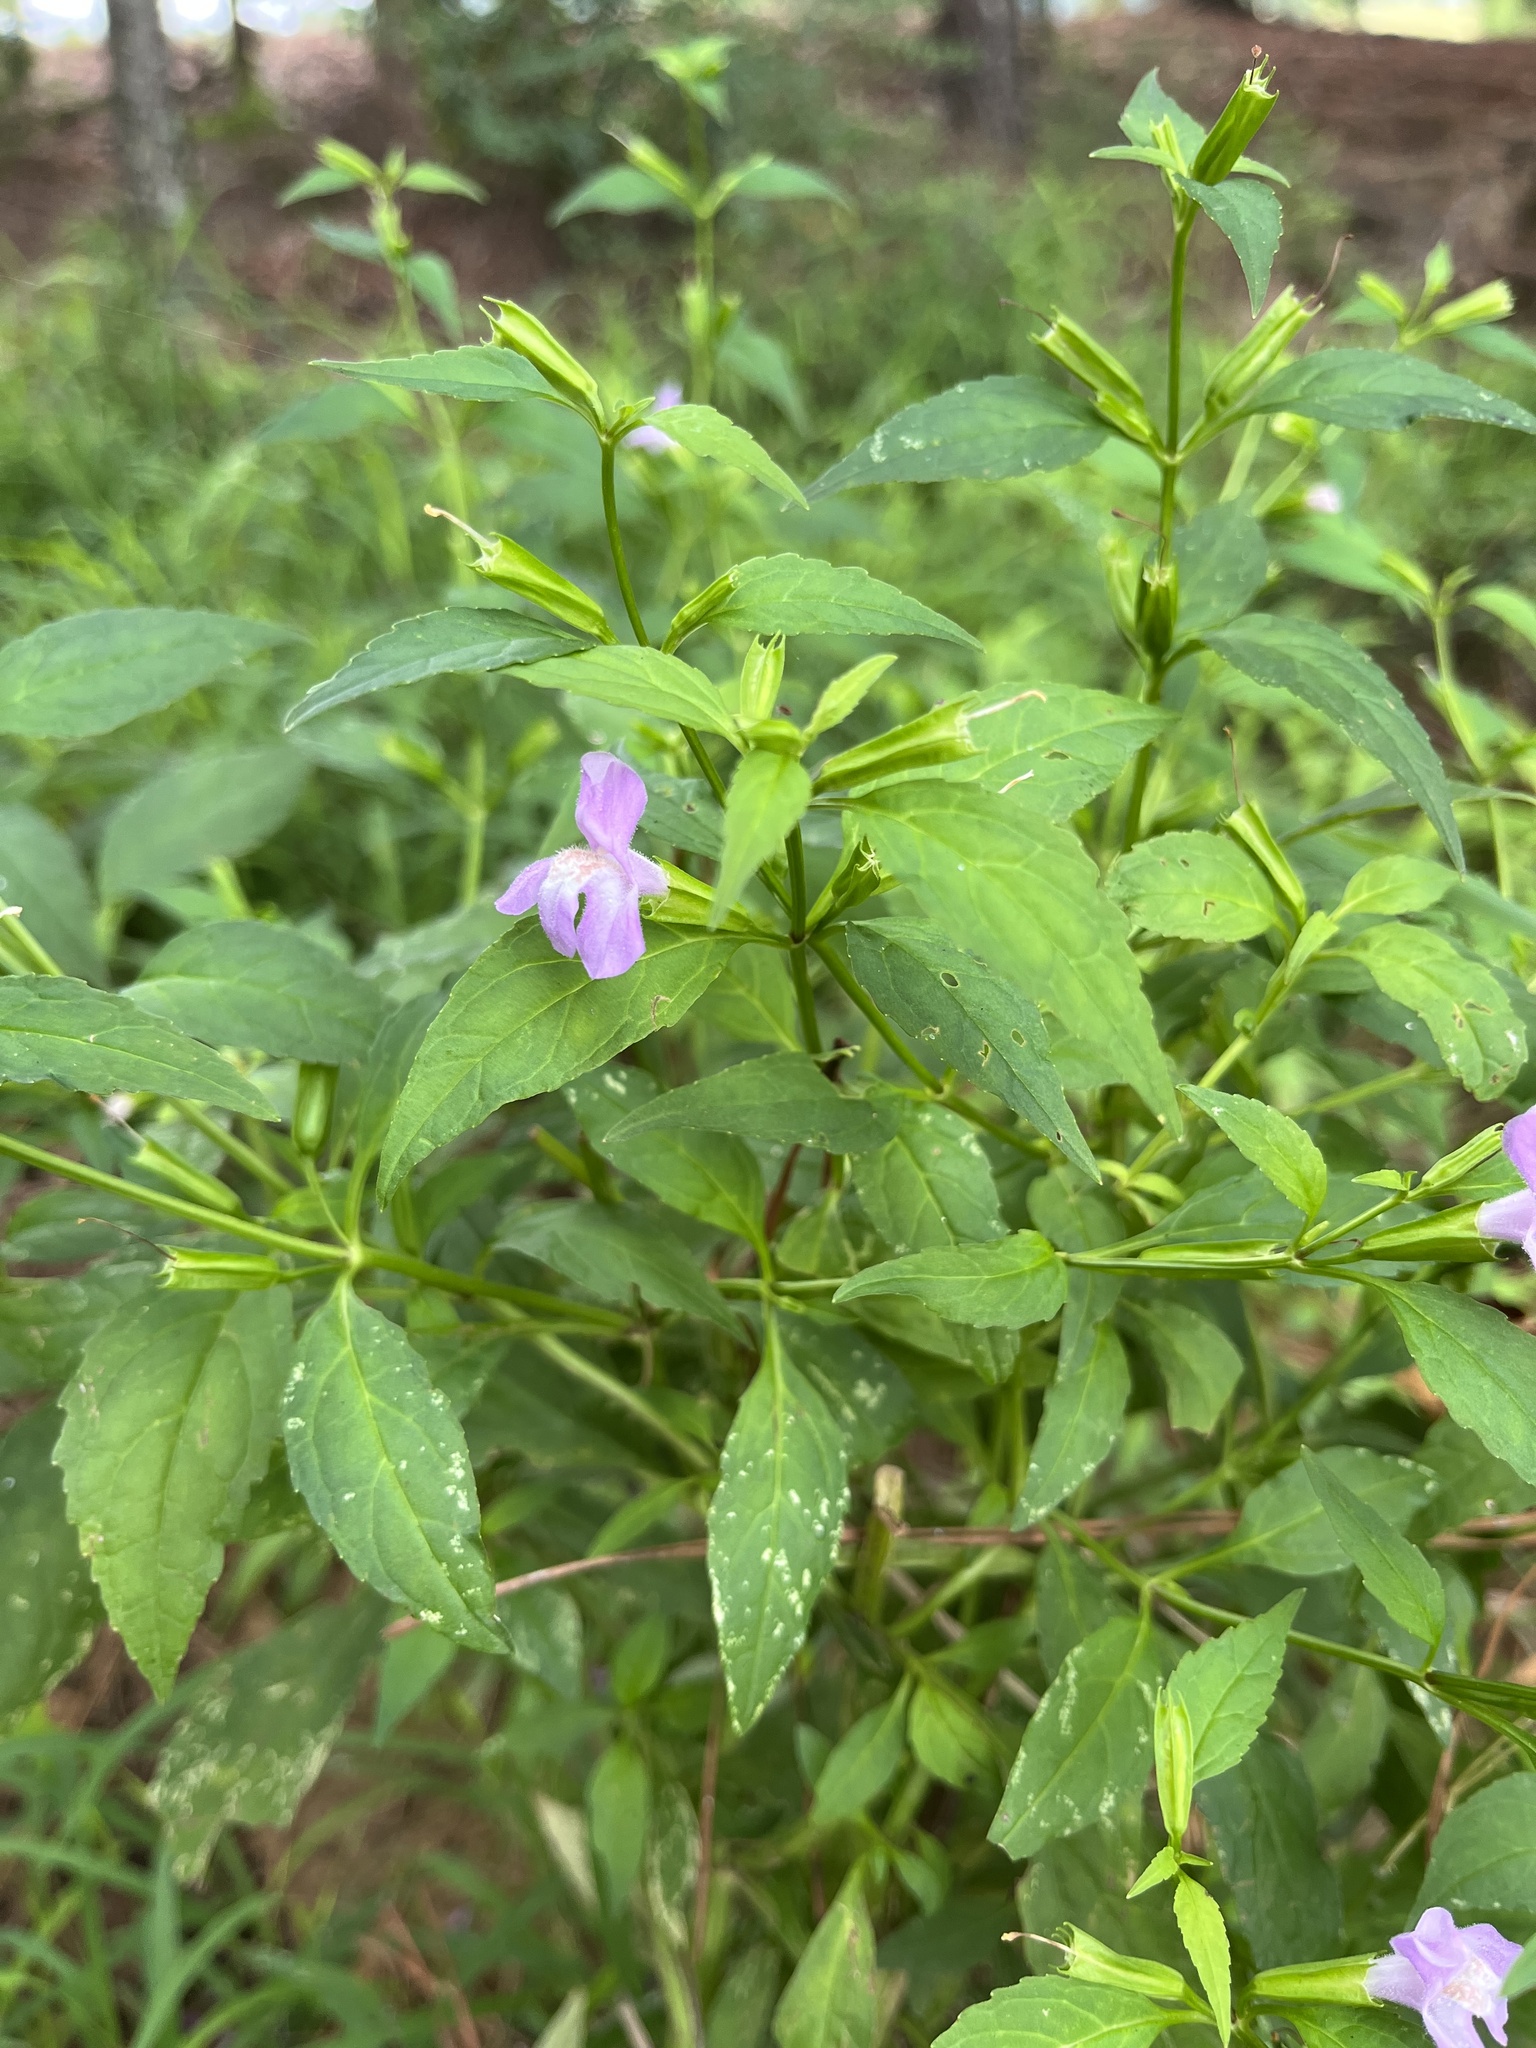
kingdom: Plantae
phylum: Tracheophyta
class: Magnoliopsida
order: Lamiales
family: Phrymaceae
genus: Mimulus
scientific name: Mimulus alatus
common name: Sharp-wing monkey-flower
